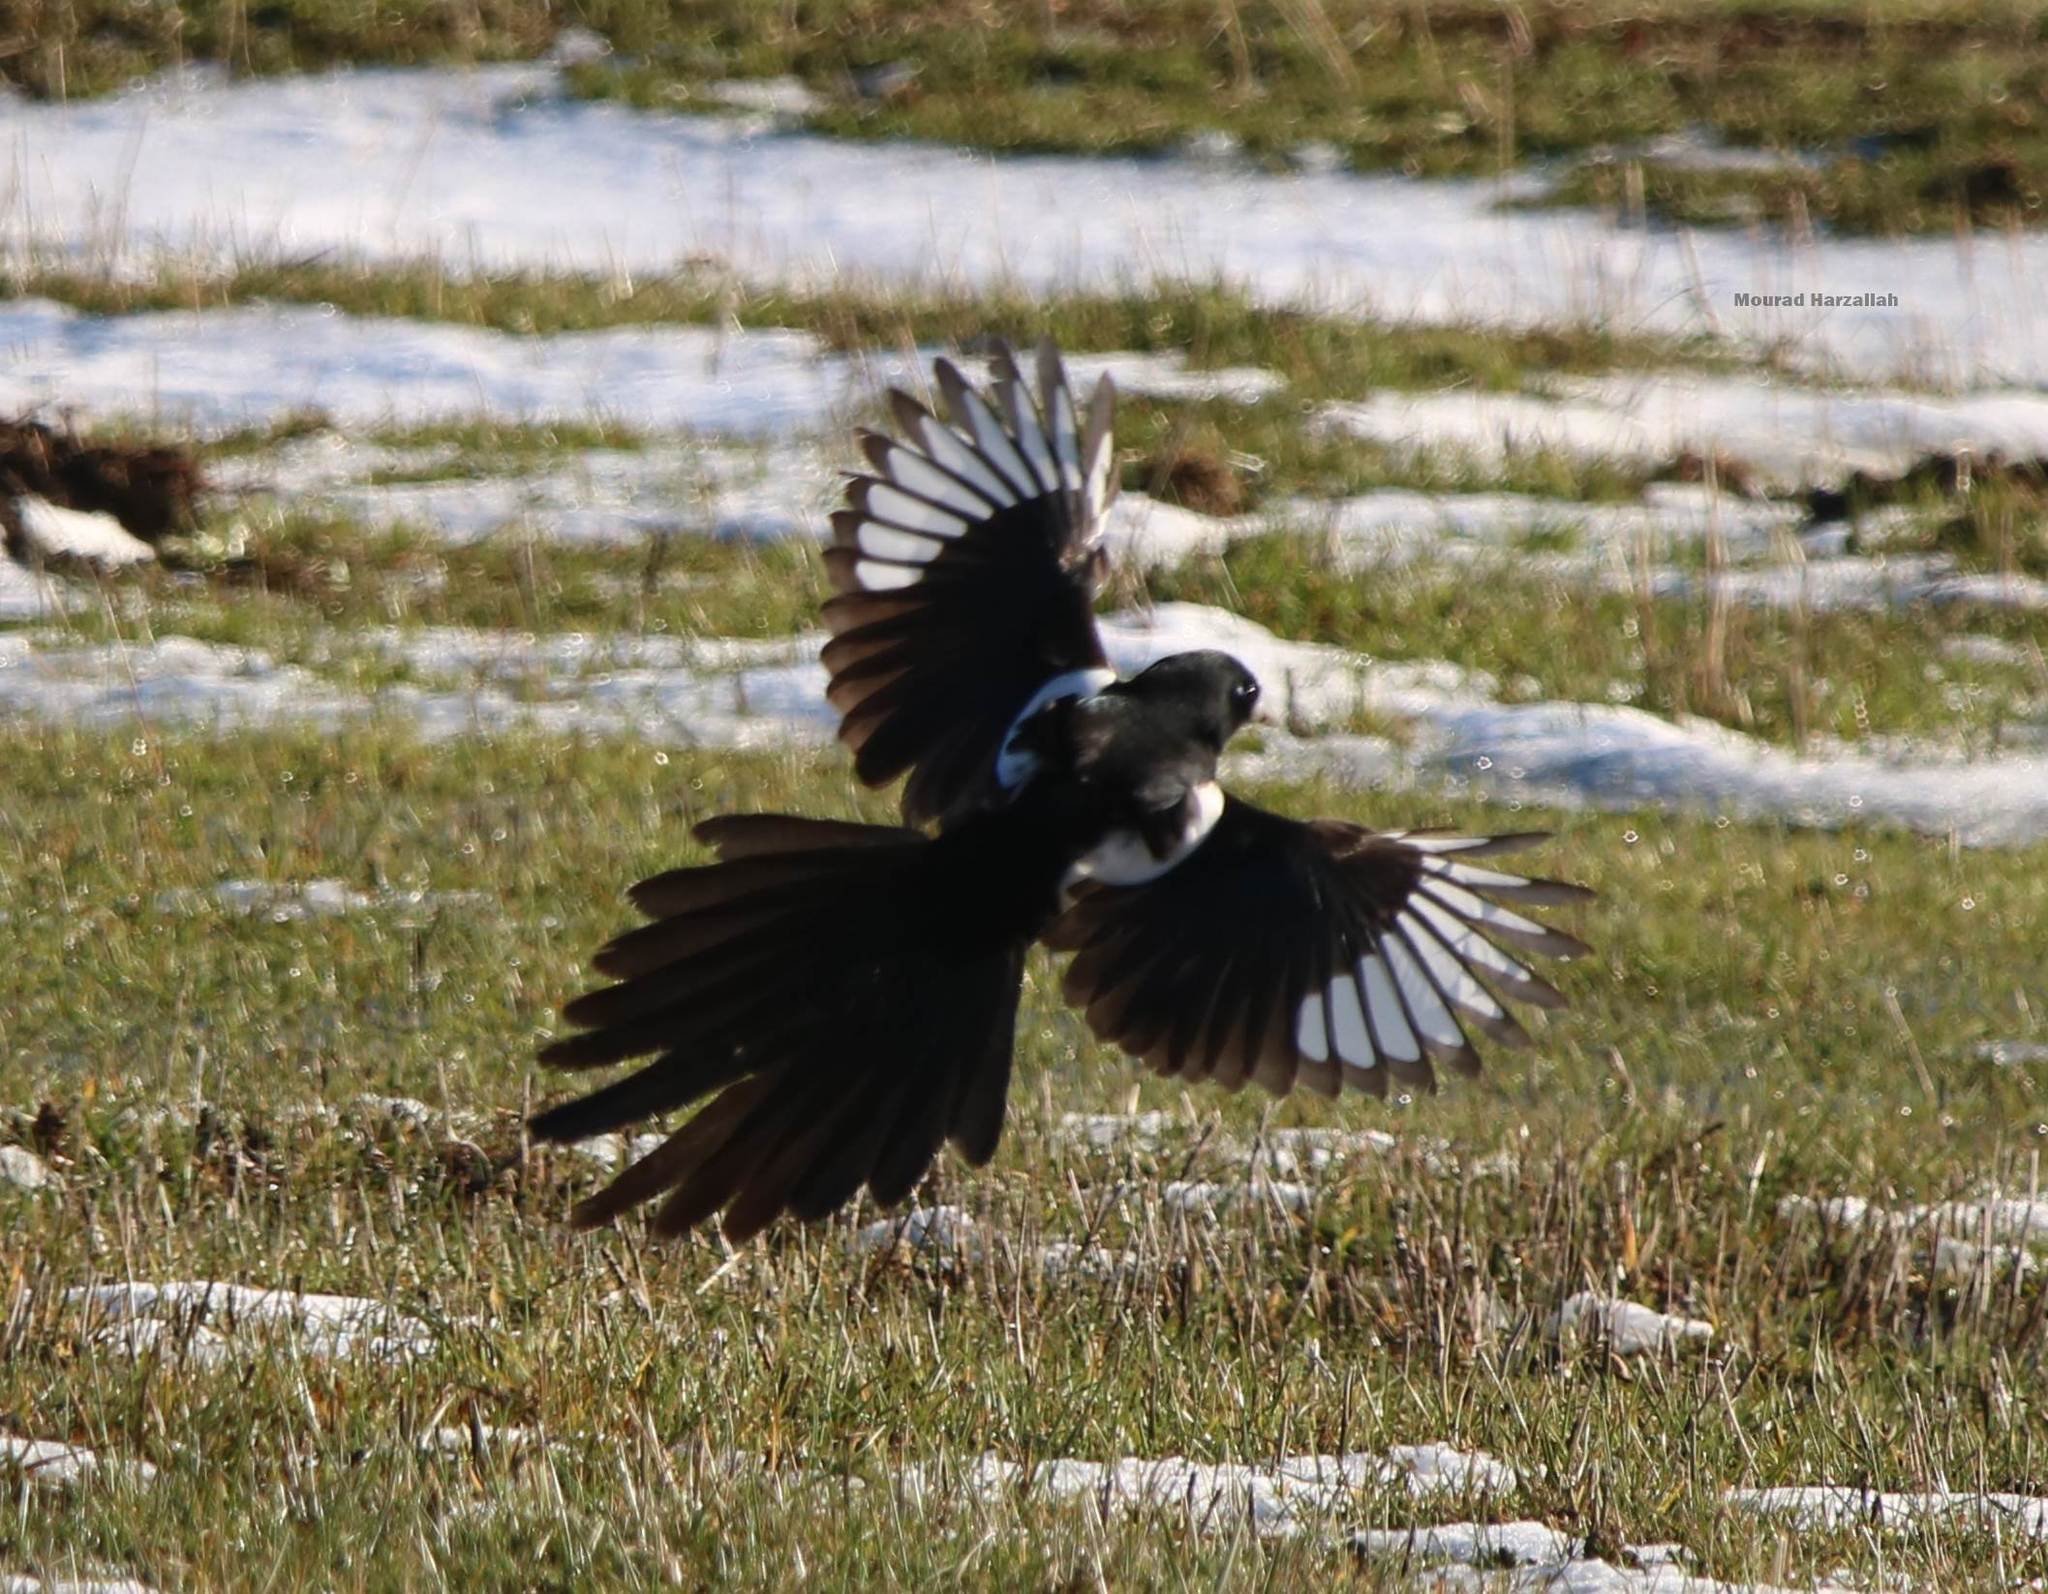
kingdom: Animalia
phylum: Chordata
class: Aves
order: Passeriformes
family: Corvidae
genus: Pica
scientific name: Pica mauritanica
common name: Maghreb magpie
